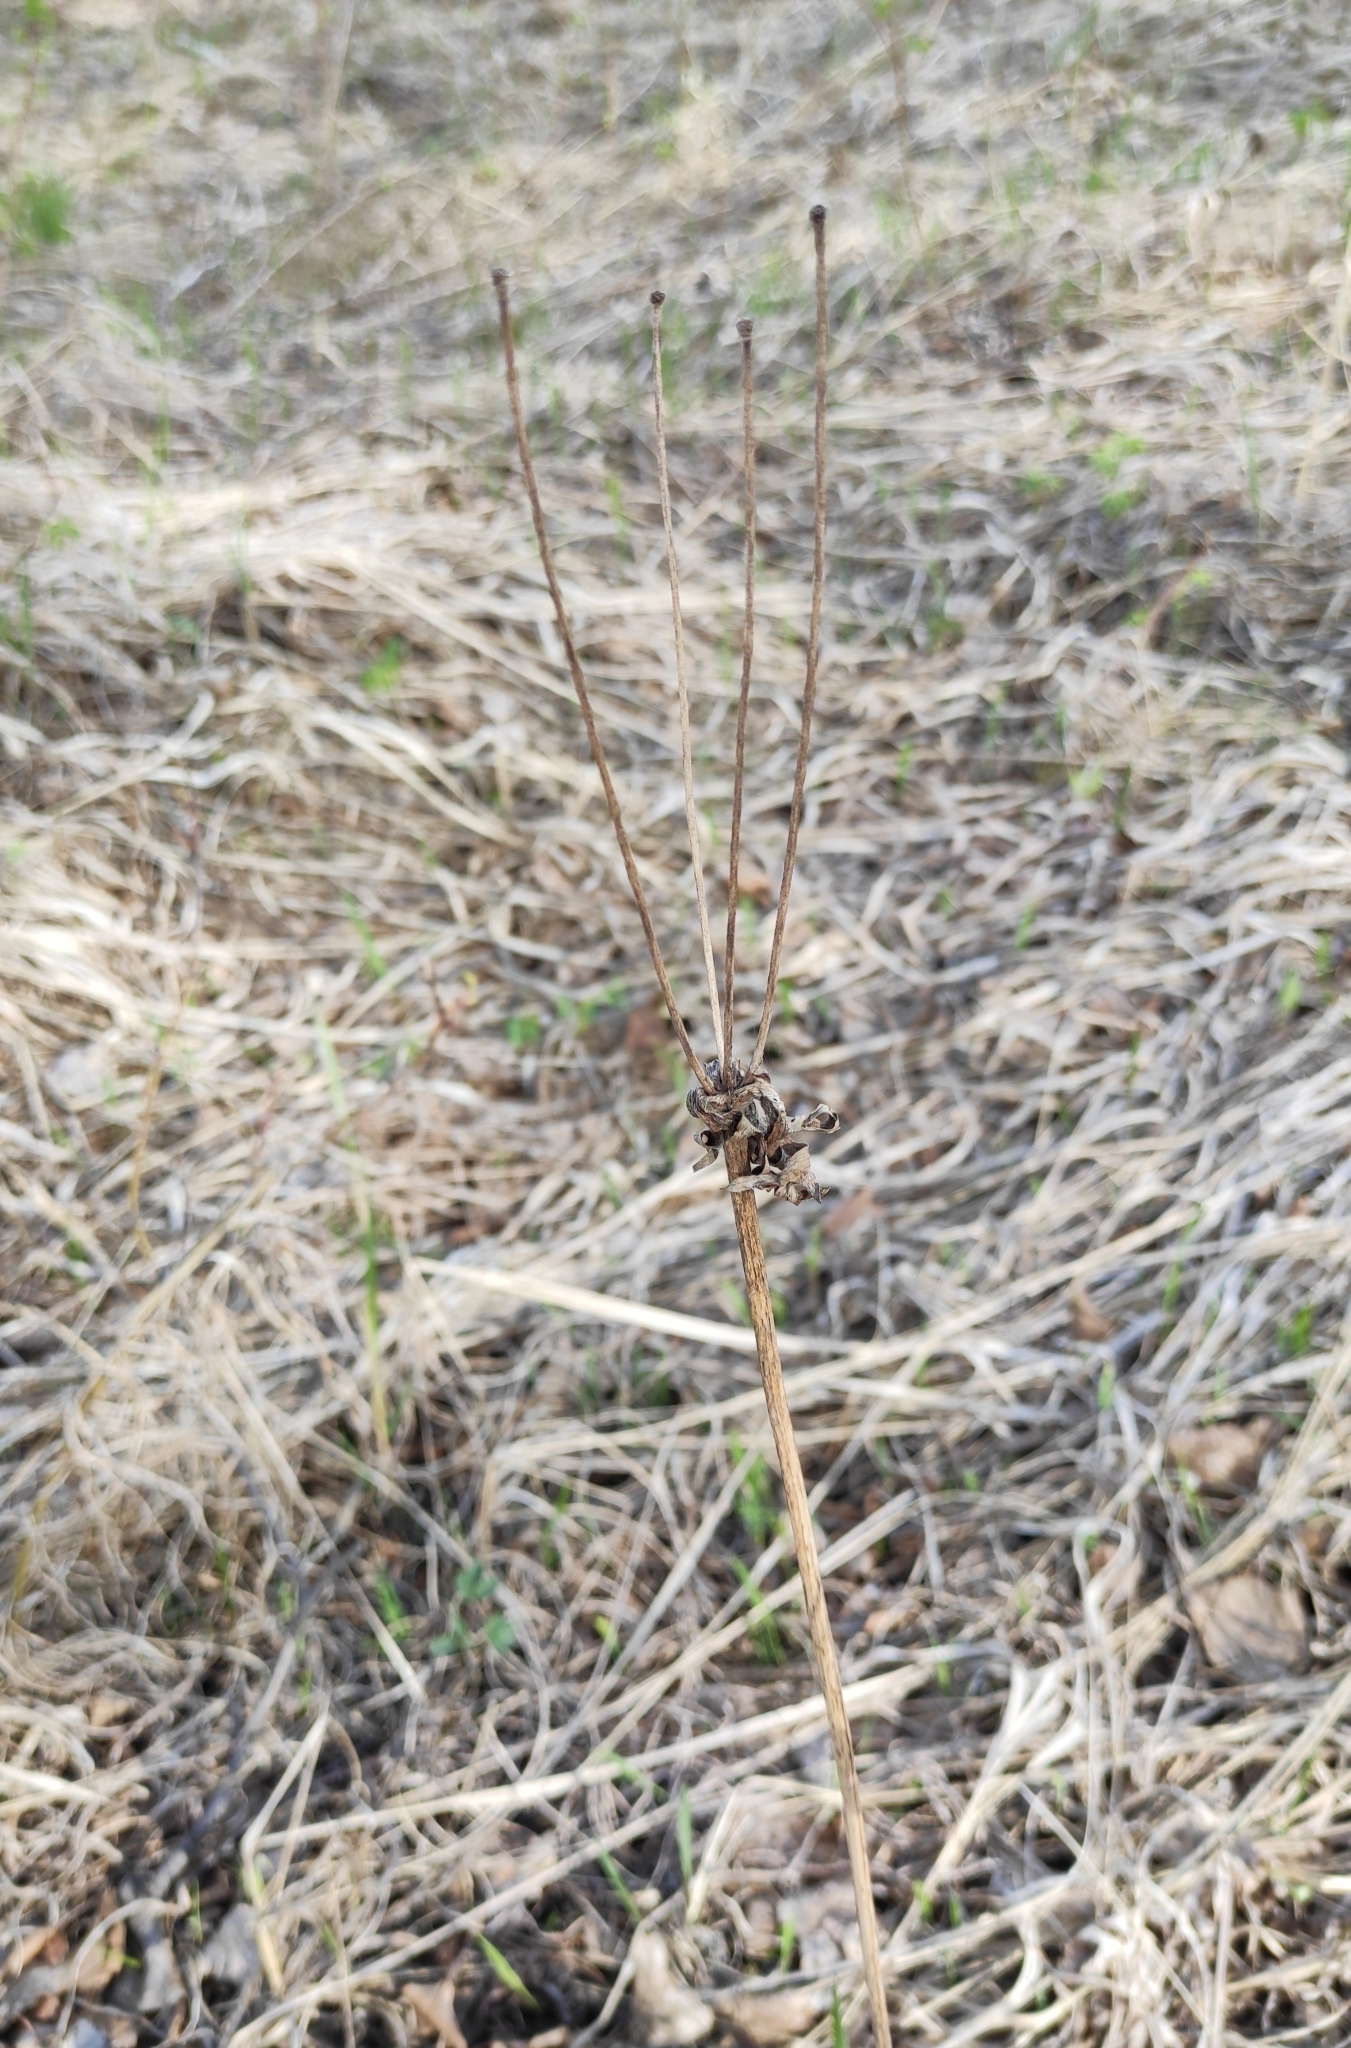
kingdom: Plantae
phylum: Tracheophyta
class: Magnoliopsida
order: Ranunculales
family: Ranunculaceae
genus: Anemonastrum
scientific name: Anemonastrum narcissiflorum
